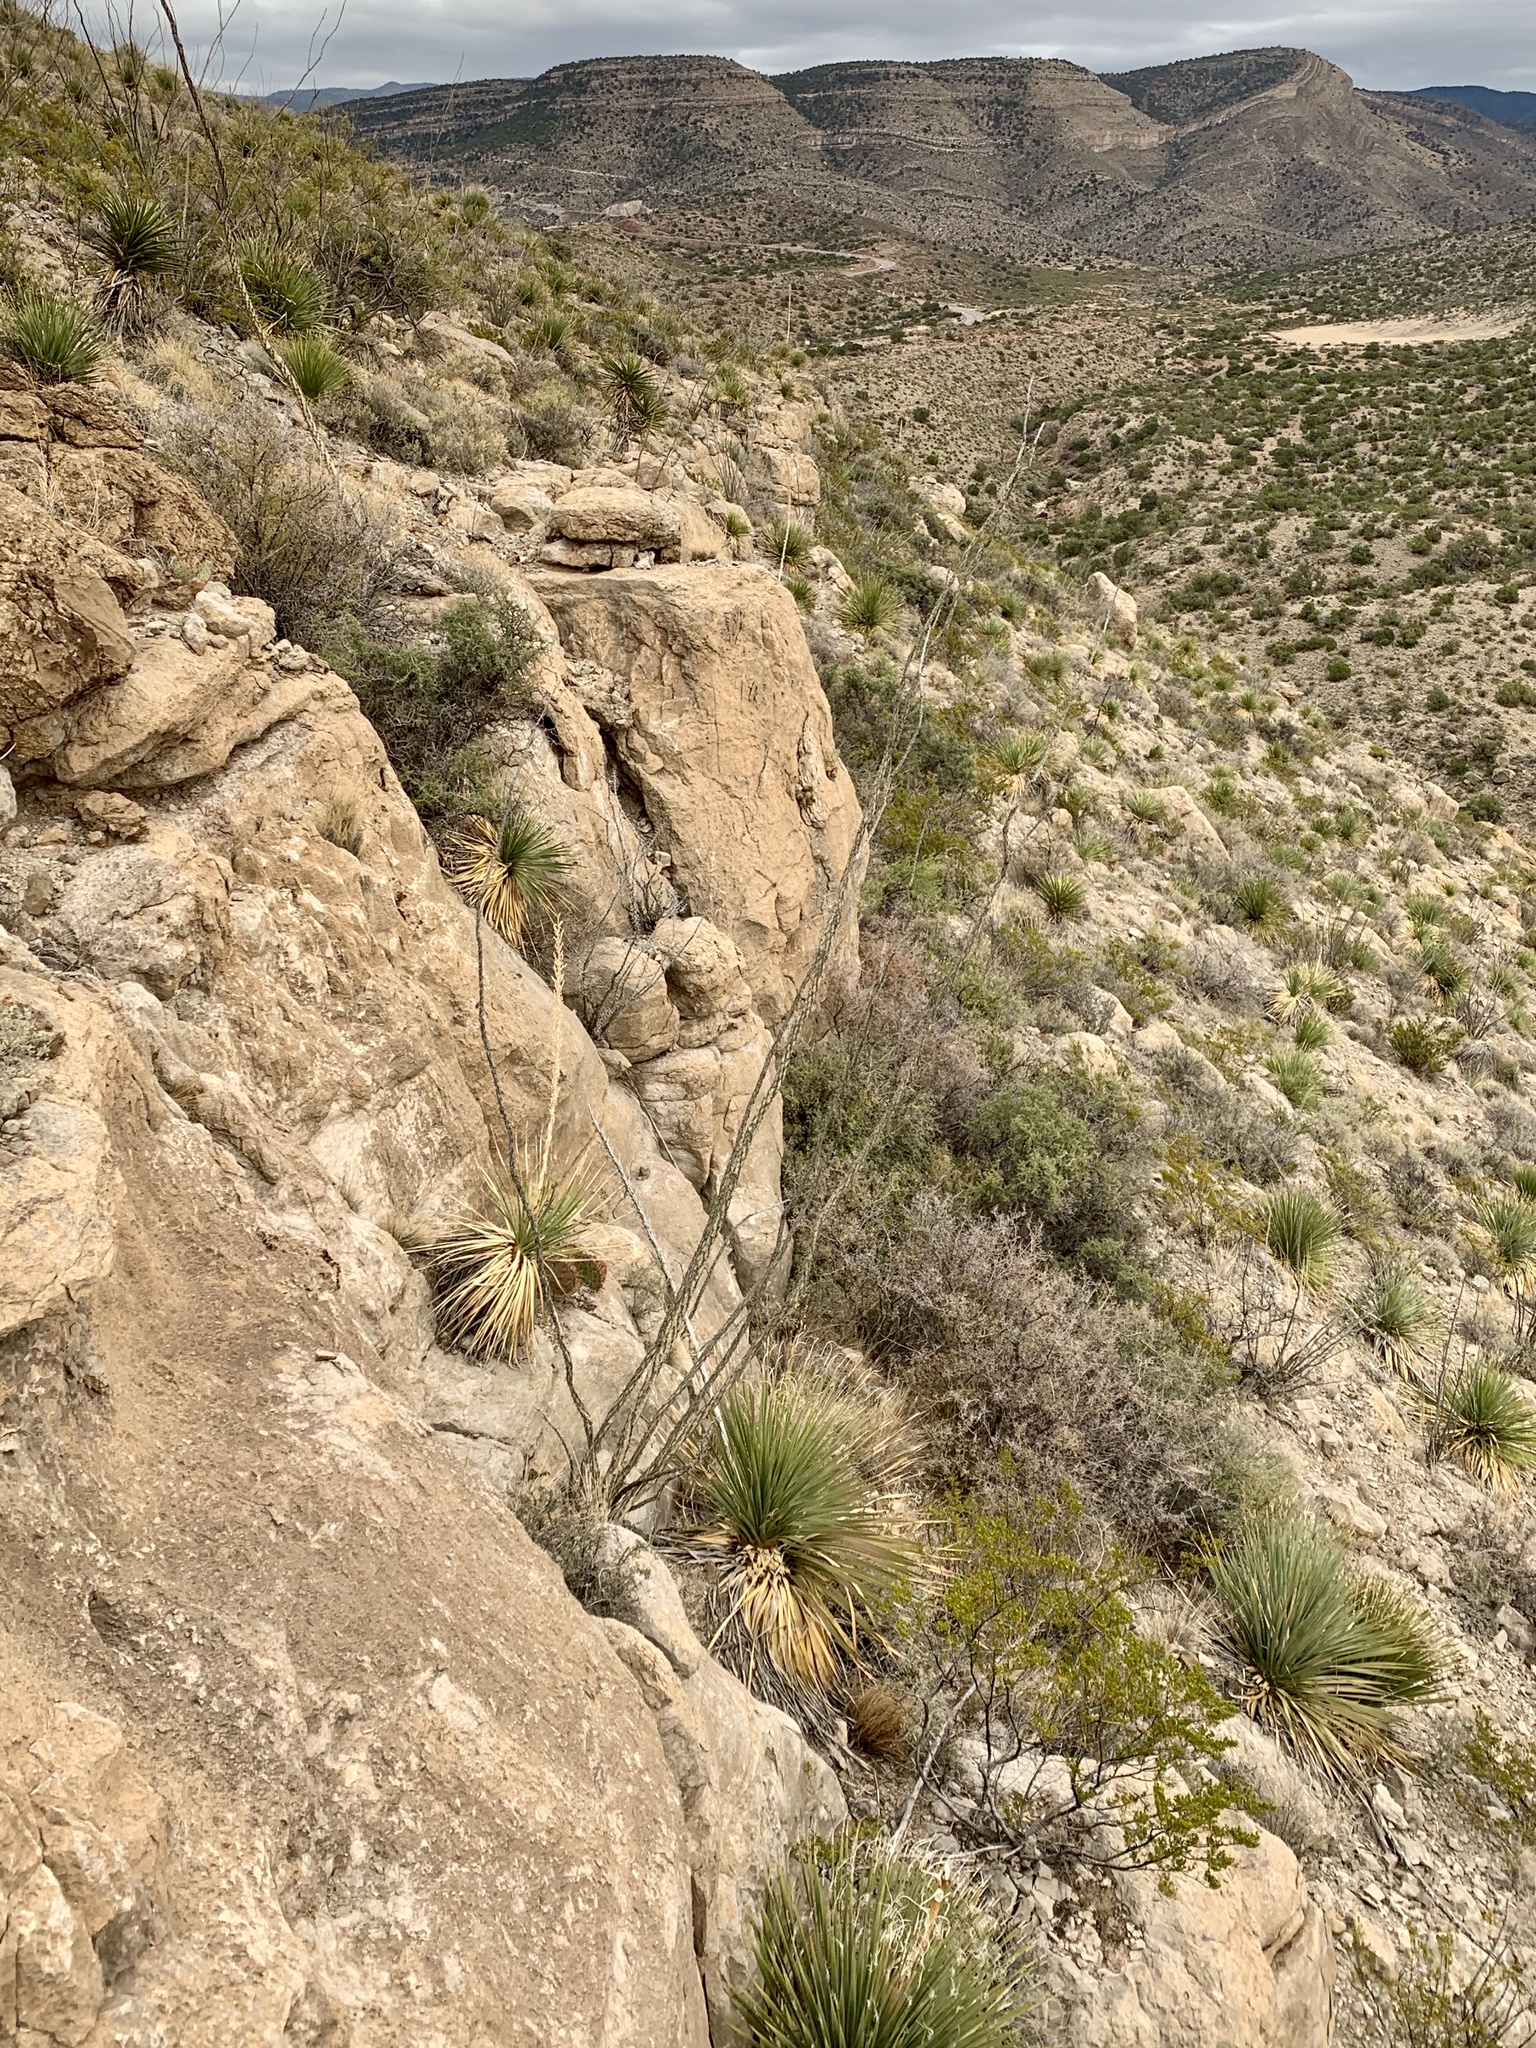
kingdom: Plantae
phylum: Tracheophyta
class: Magnoliopsida
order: Ericales
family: Fouquieriaceae
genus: Fouquieria
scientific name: Fouquieria splendens
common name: Vine-cactus
